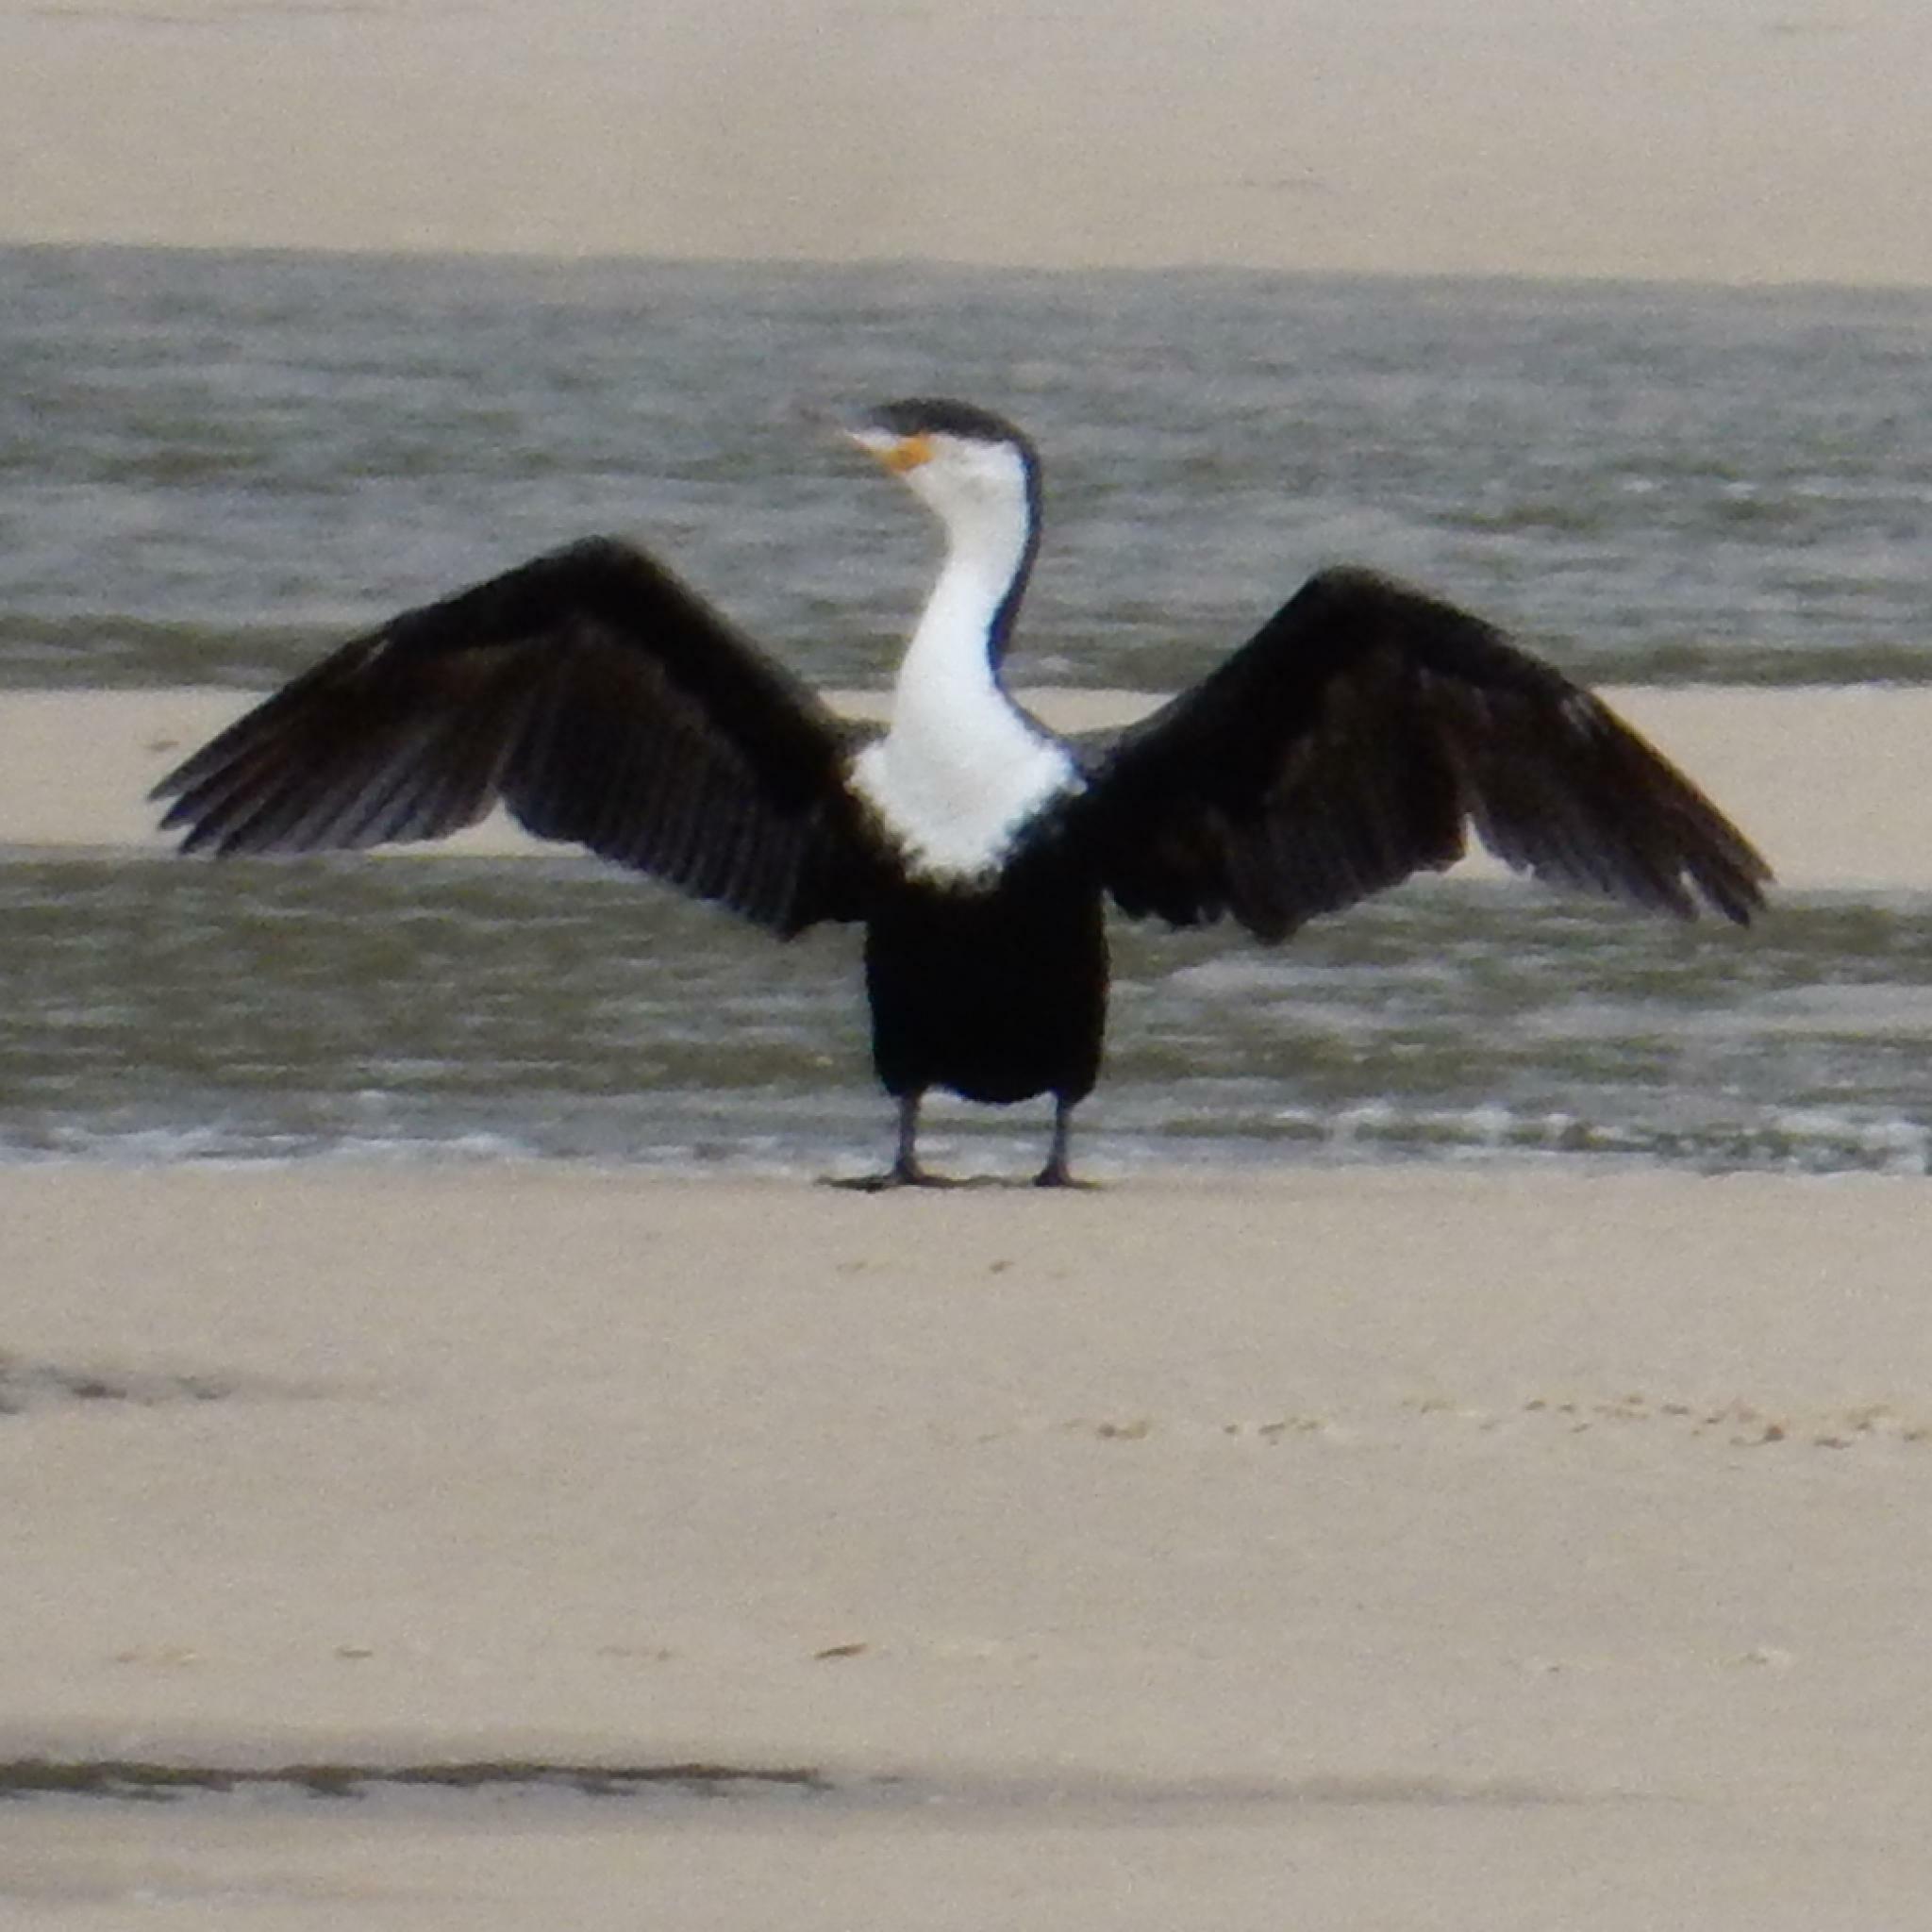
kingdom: Animalia
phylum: Chordata
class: Aves
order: Suliformes
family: Phalacrocoracidae
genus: Phalacrocorax
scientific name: Phalacrocorax carbo
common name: Great cormorant
